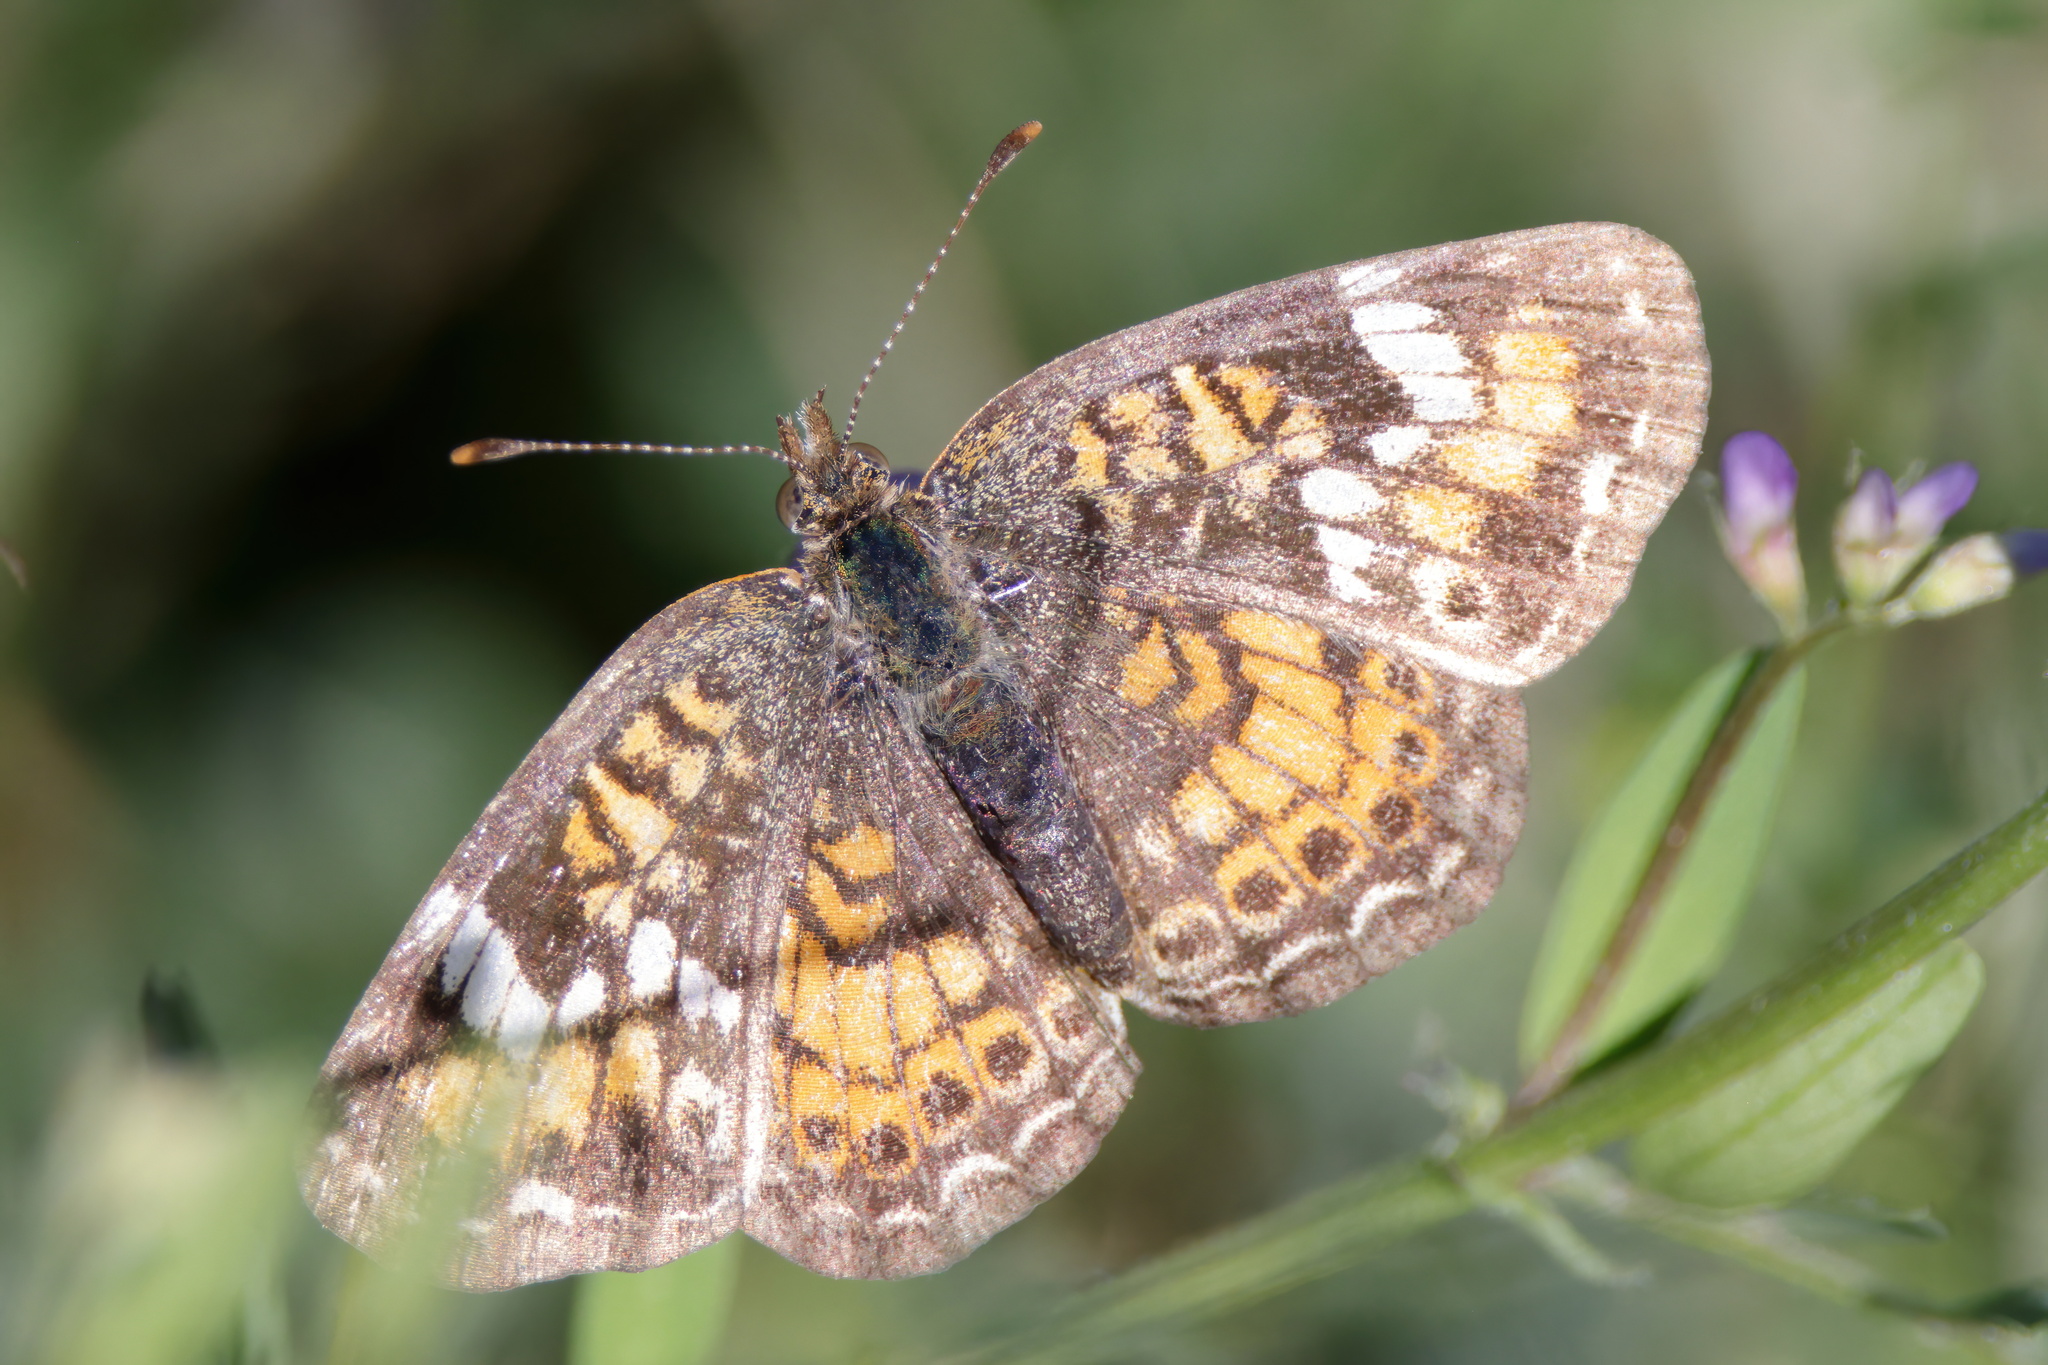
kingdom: Animalia
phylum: Arthropoda
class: Insecta
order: Lepidoptera
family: Nymphalidae
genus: Phyciodes
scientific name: Phyciodes phaon
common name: Phaon crescent
